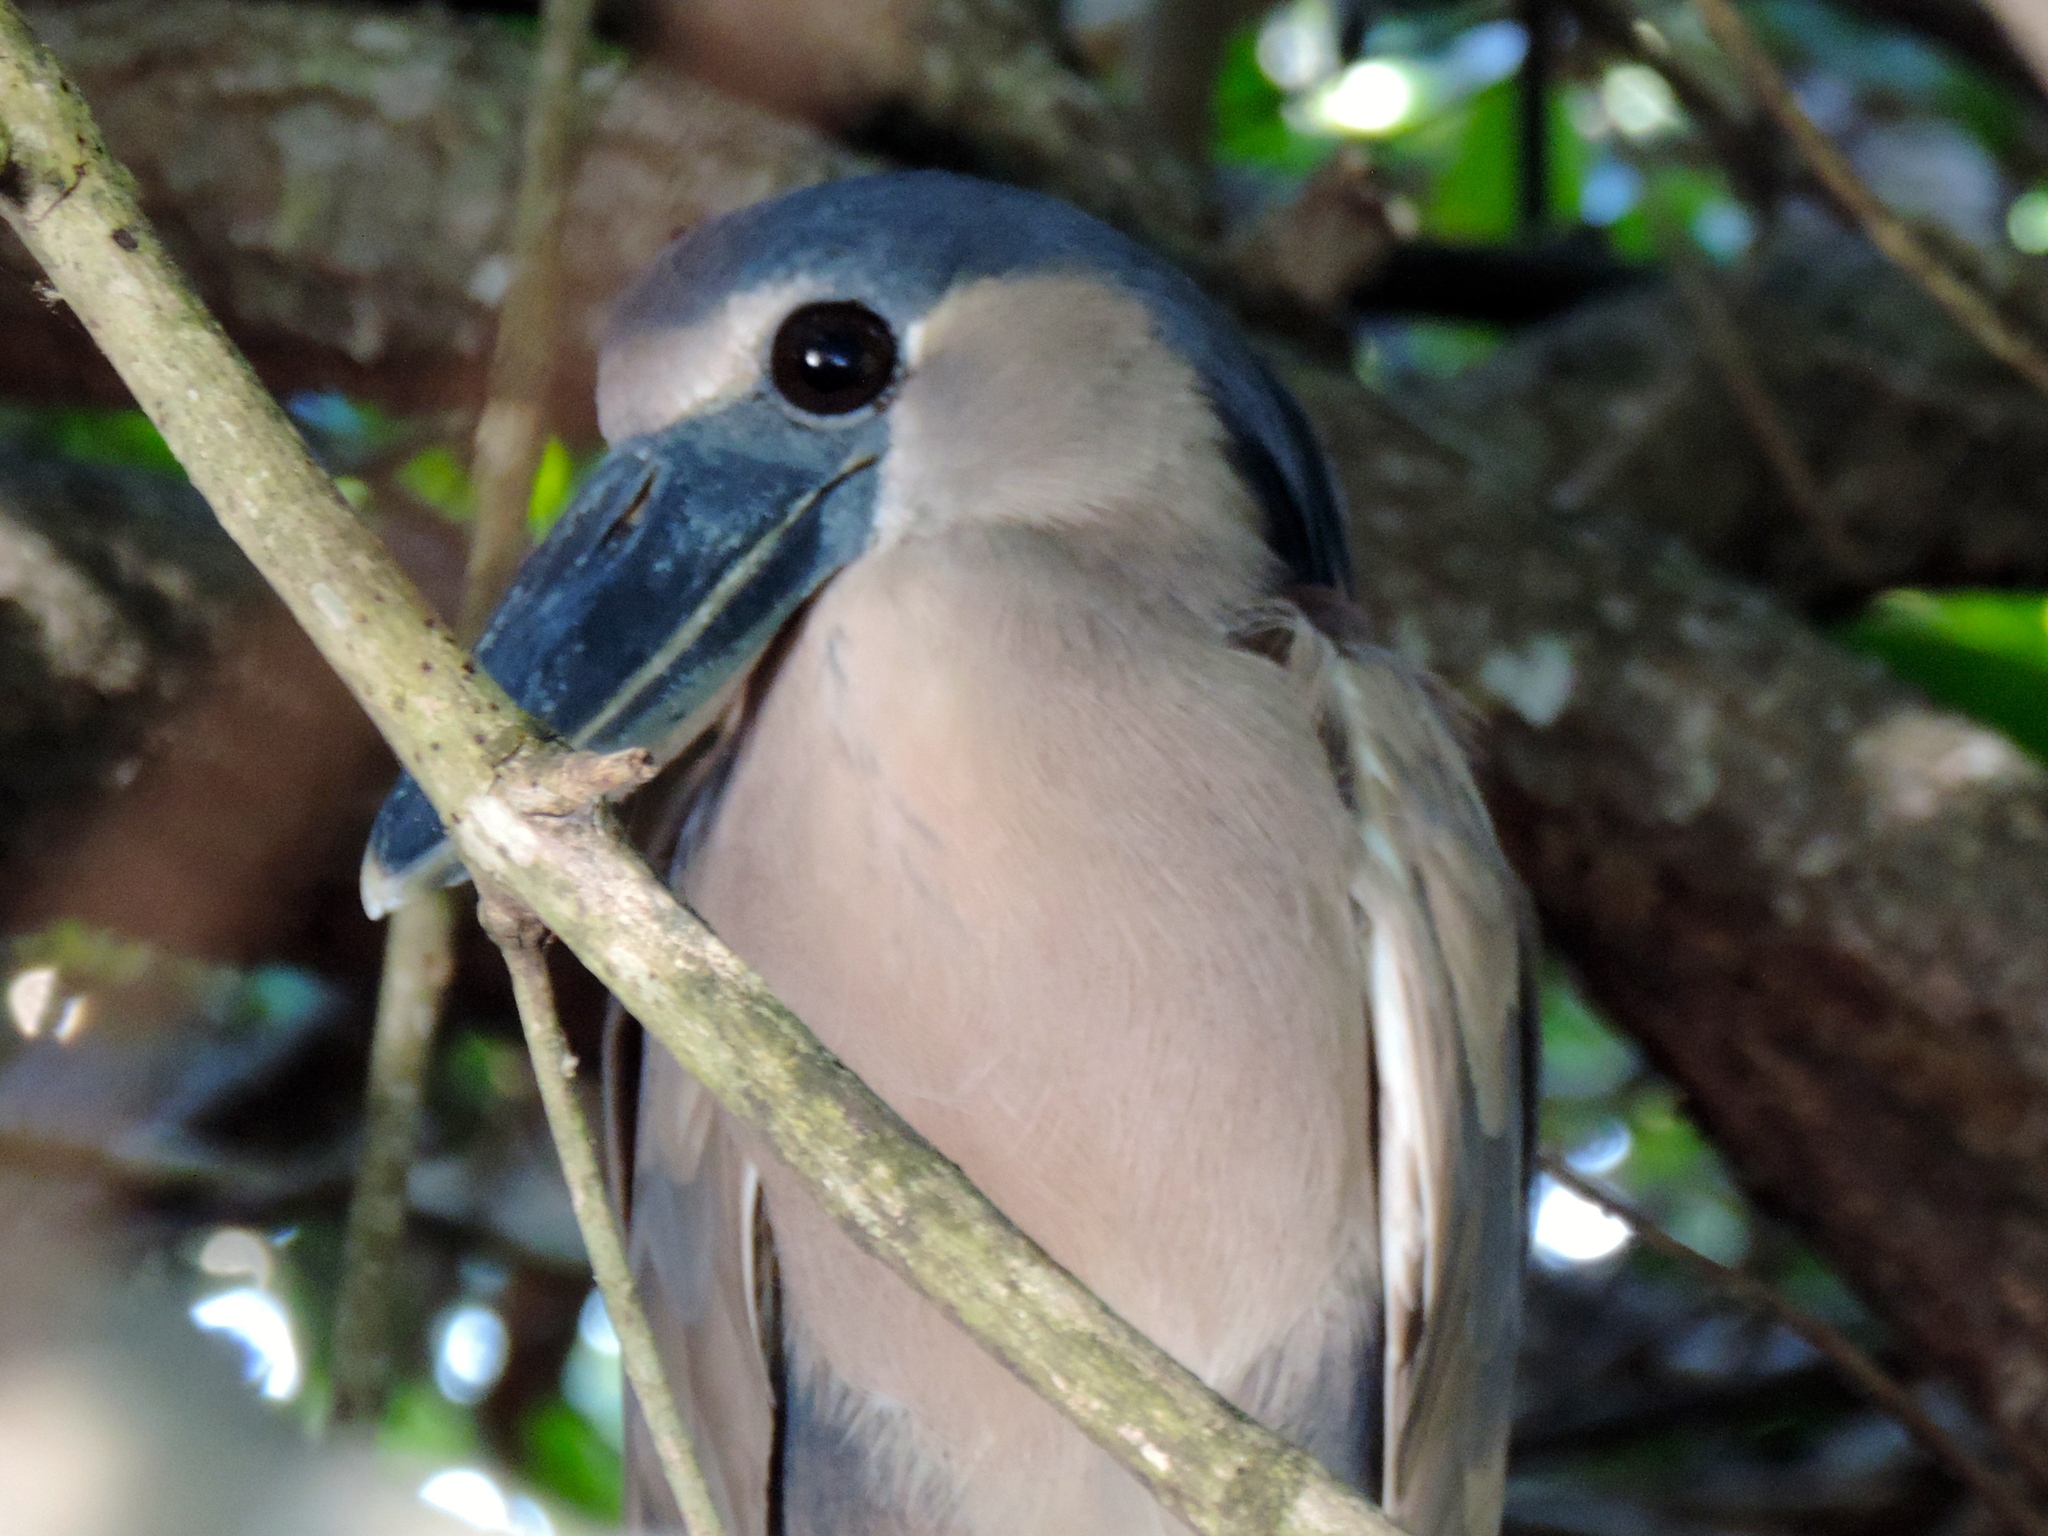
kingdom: Animalia
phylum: Chordata
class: Aves
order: Pelecaniformes
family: Ardeidae
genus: Cochlearius
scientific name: Cochlearius cochlearius
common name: Boat-billed heron
